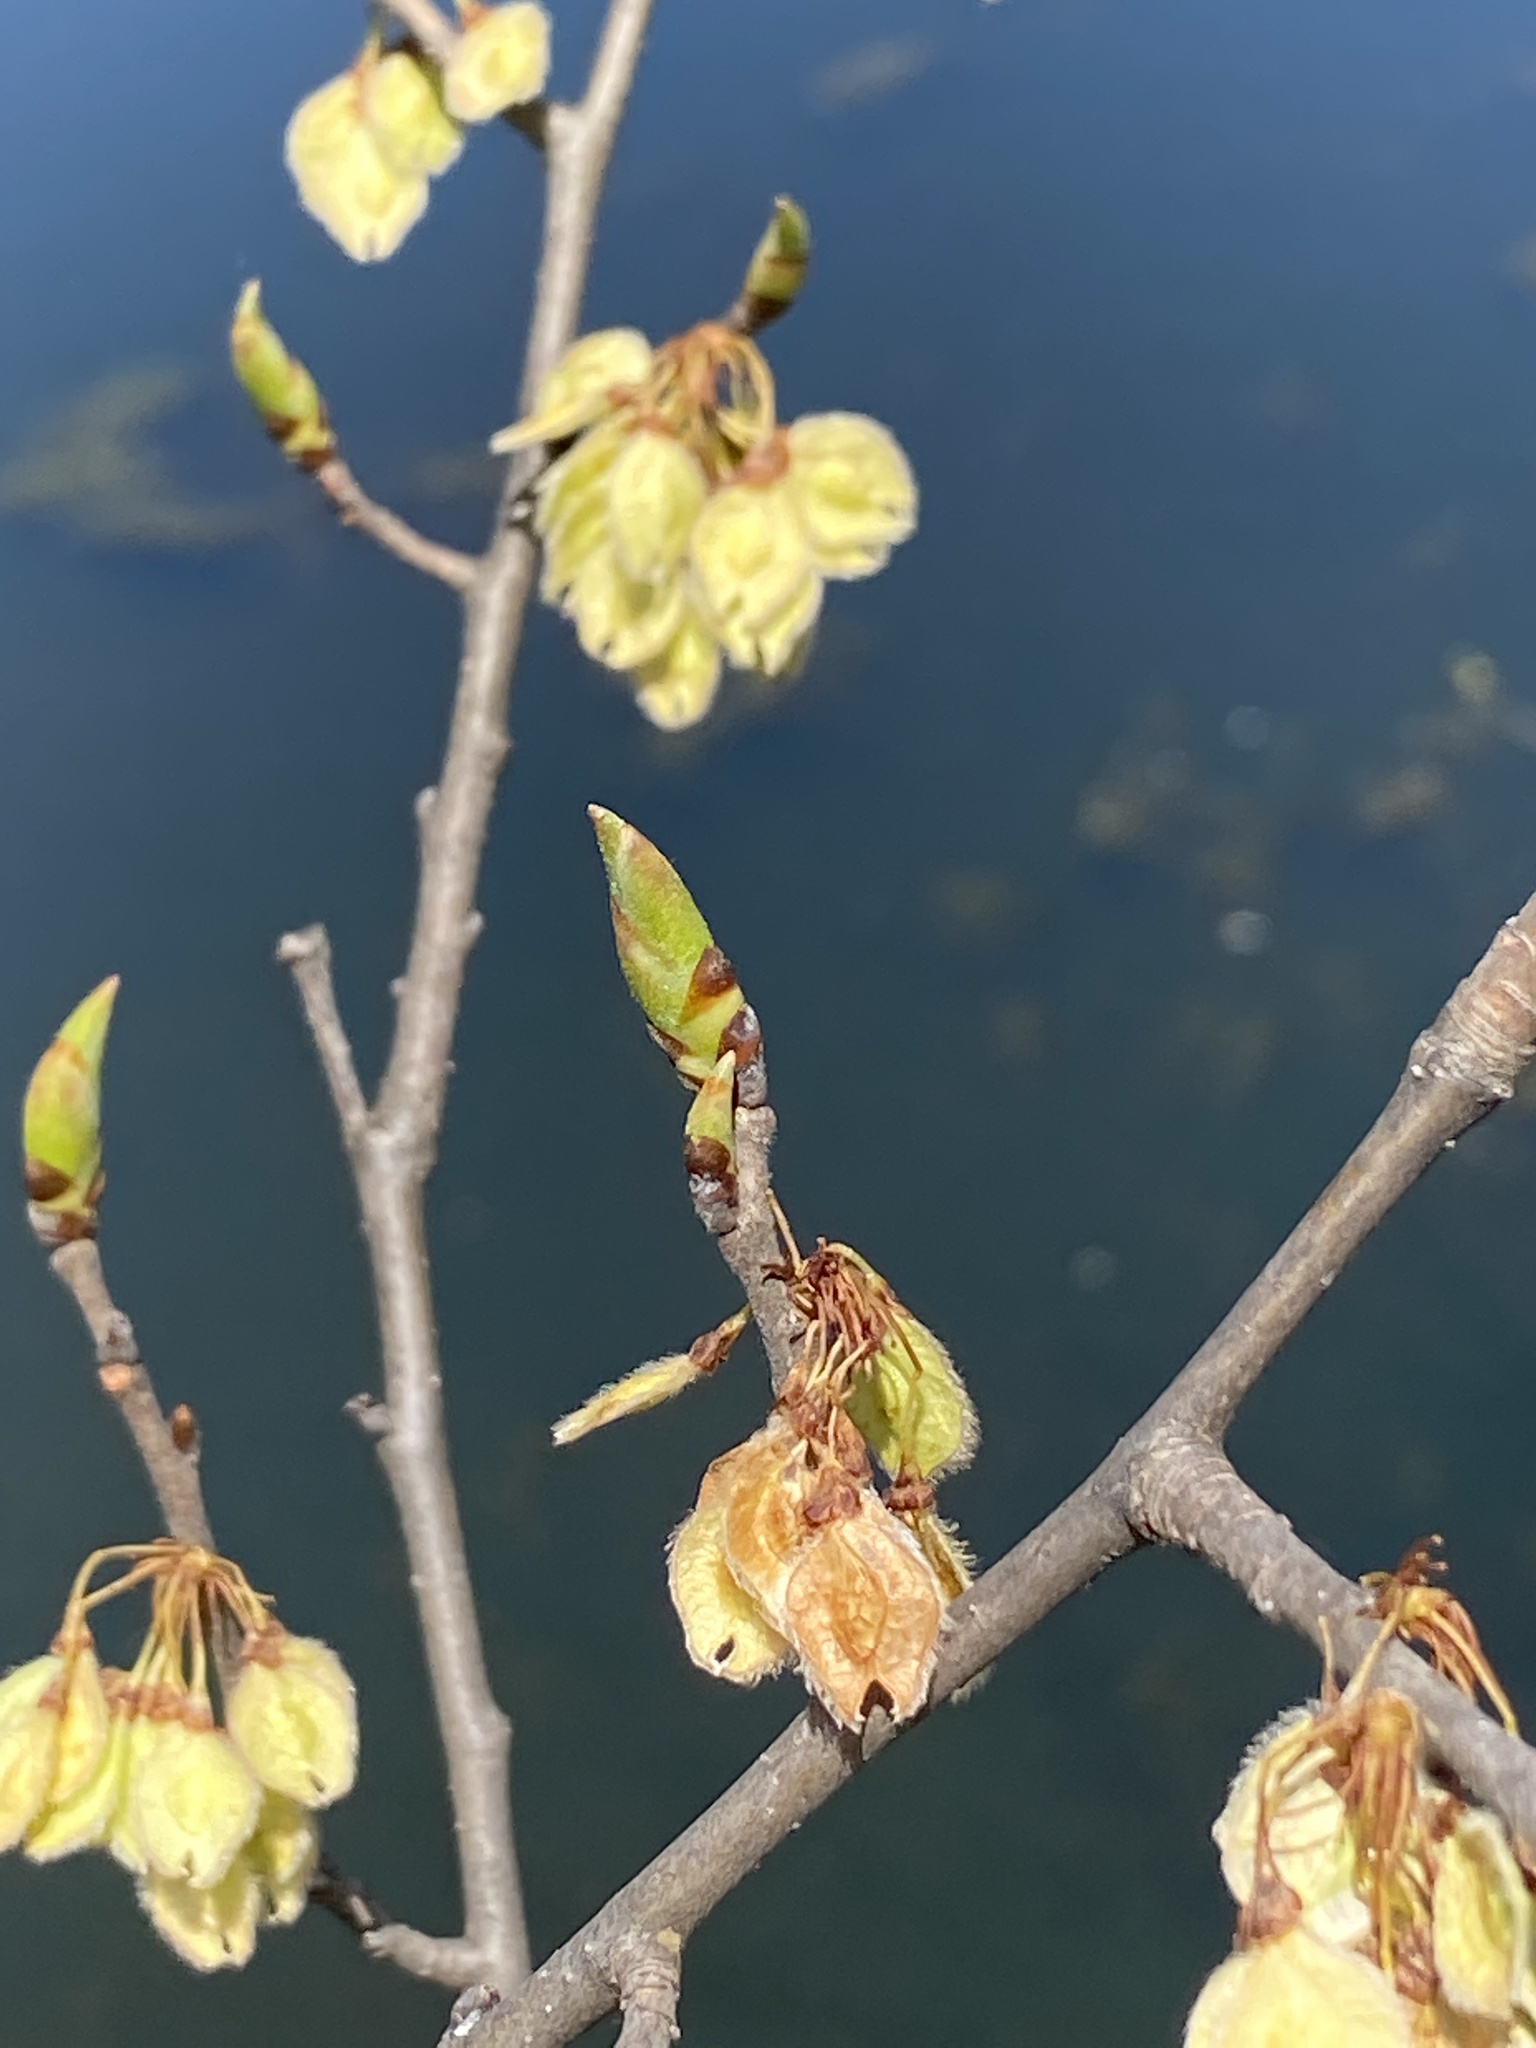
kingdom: Plantae
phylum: Tracheophyta
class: Magnoliopsida
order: Rosales
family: Ulmaceae
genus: Ulmus
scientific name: Ulmus americana
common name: American elm
